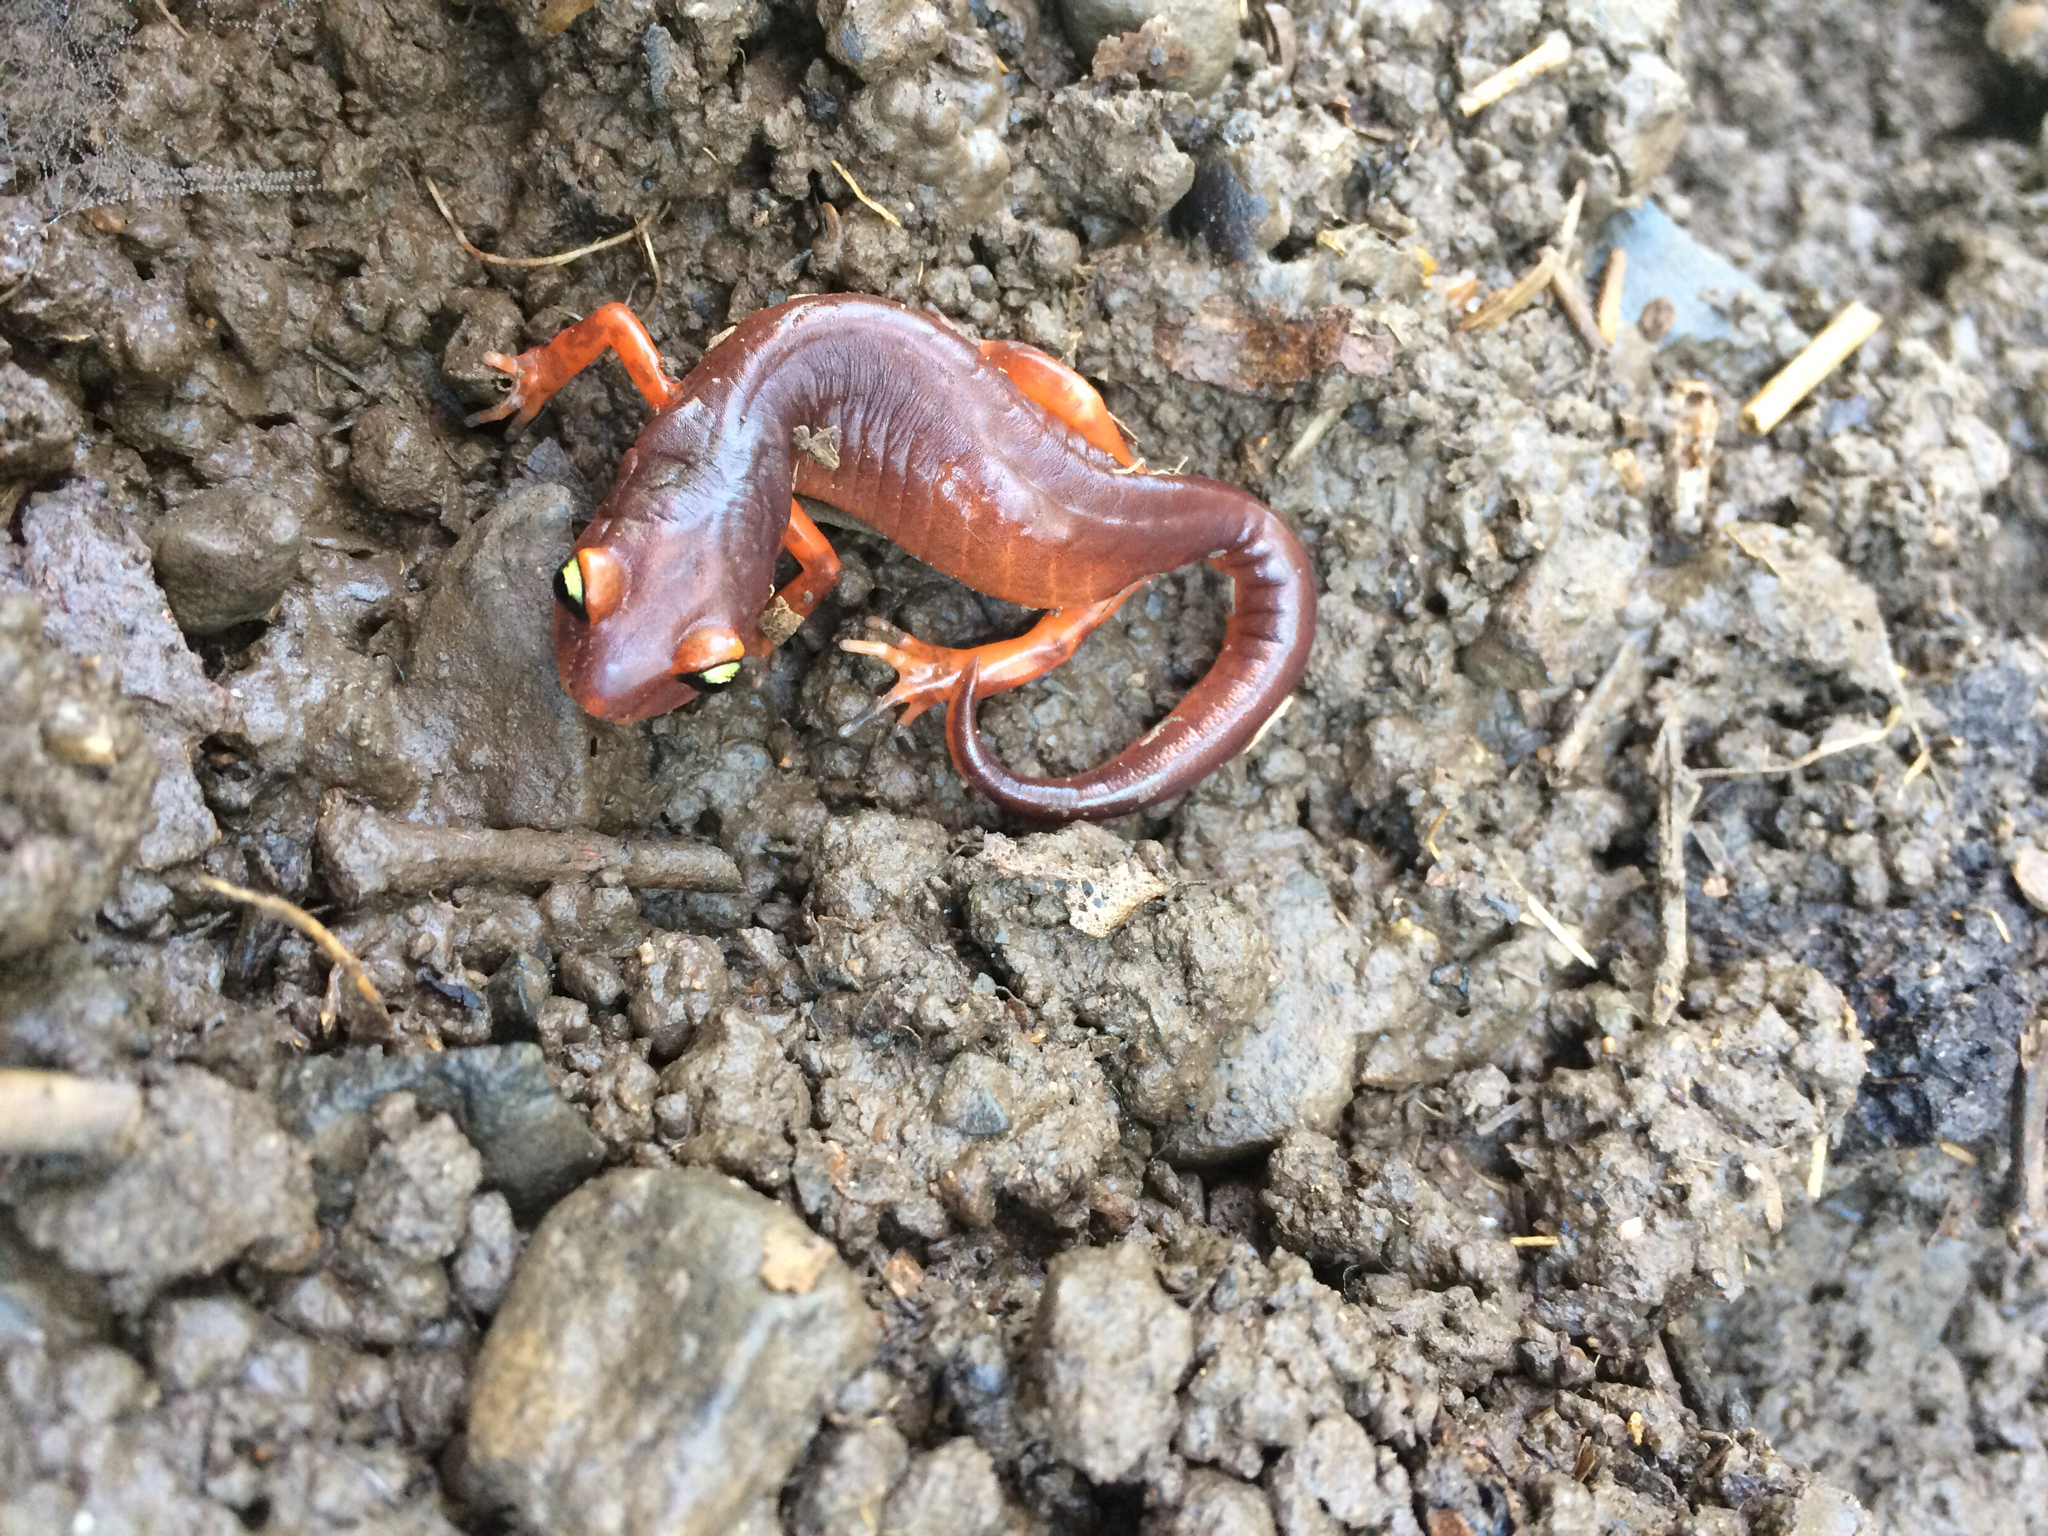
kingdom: Animalia
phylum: Chordata
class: Amphibia
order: Caudata
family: Plethodontidae
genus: Ensatina
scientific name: Ensatina eschscholtzii
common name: Ensatina
